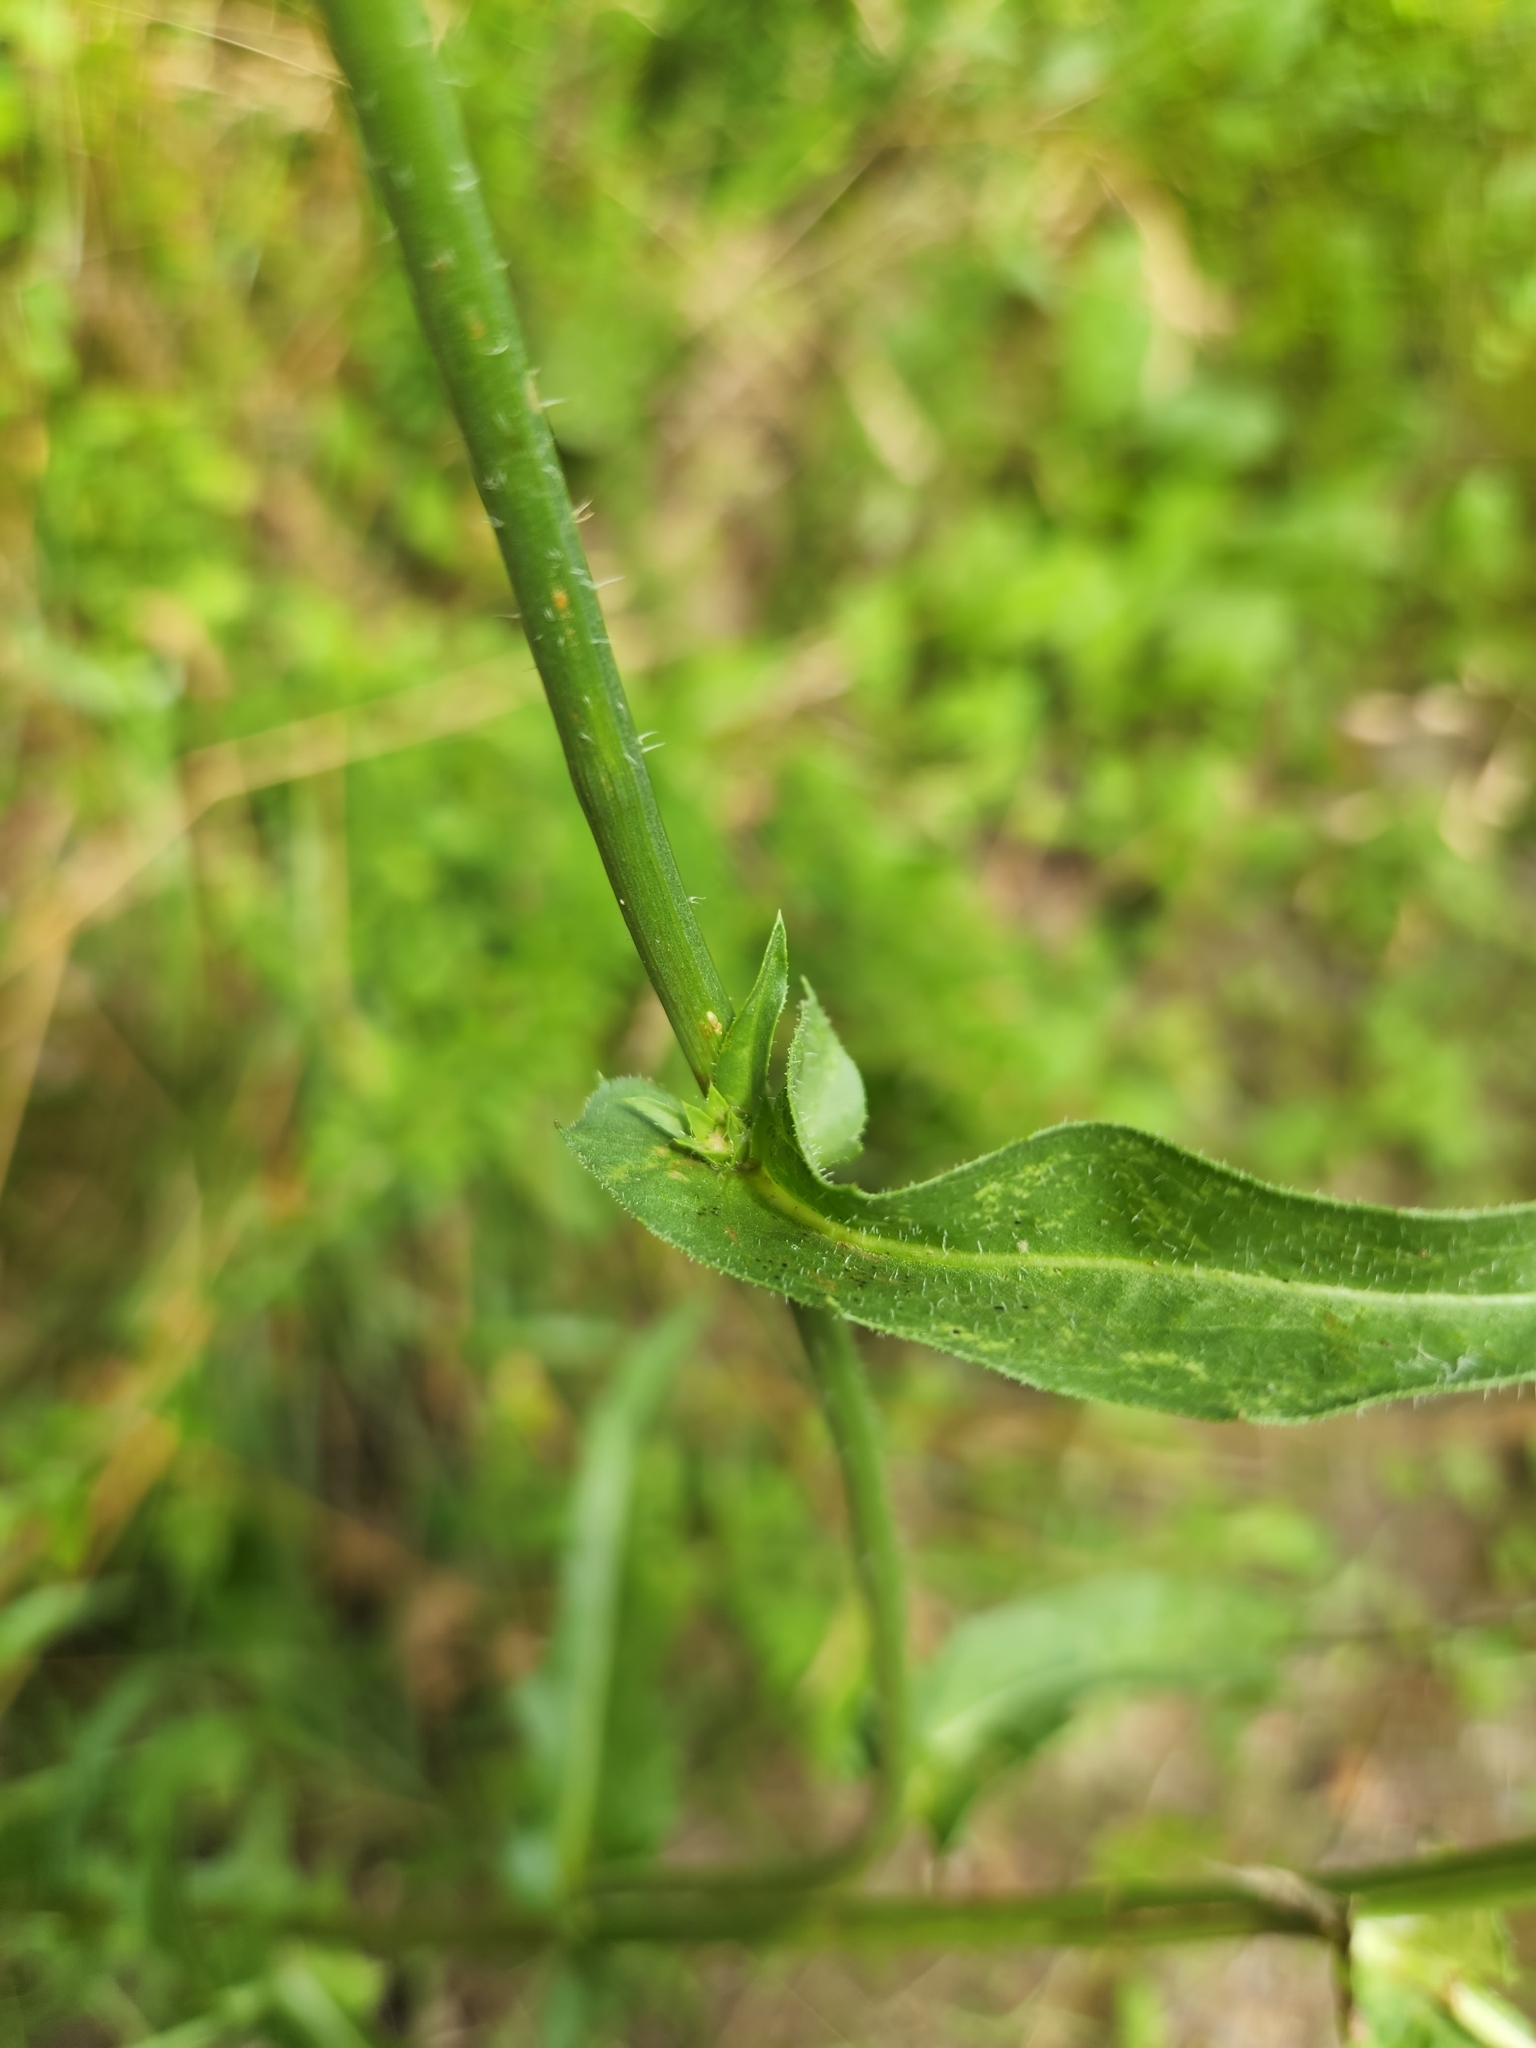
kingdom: Plantae
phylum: Tracheophyta
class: Magnoliopsida
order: Asterales
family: Asteraceae
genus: Cichorium
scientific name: Cichorium intybus
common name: Chicory
